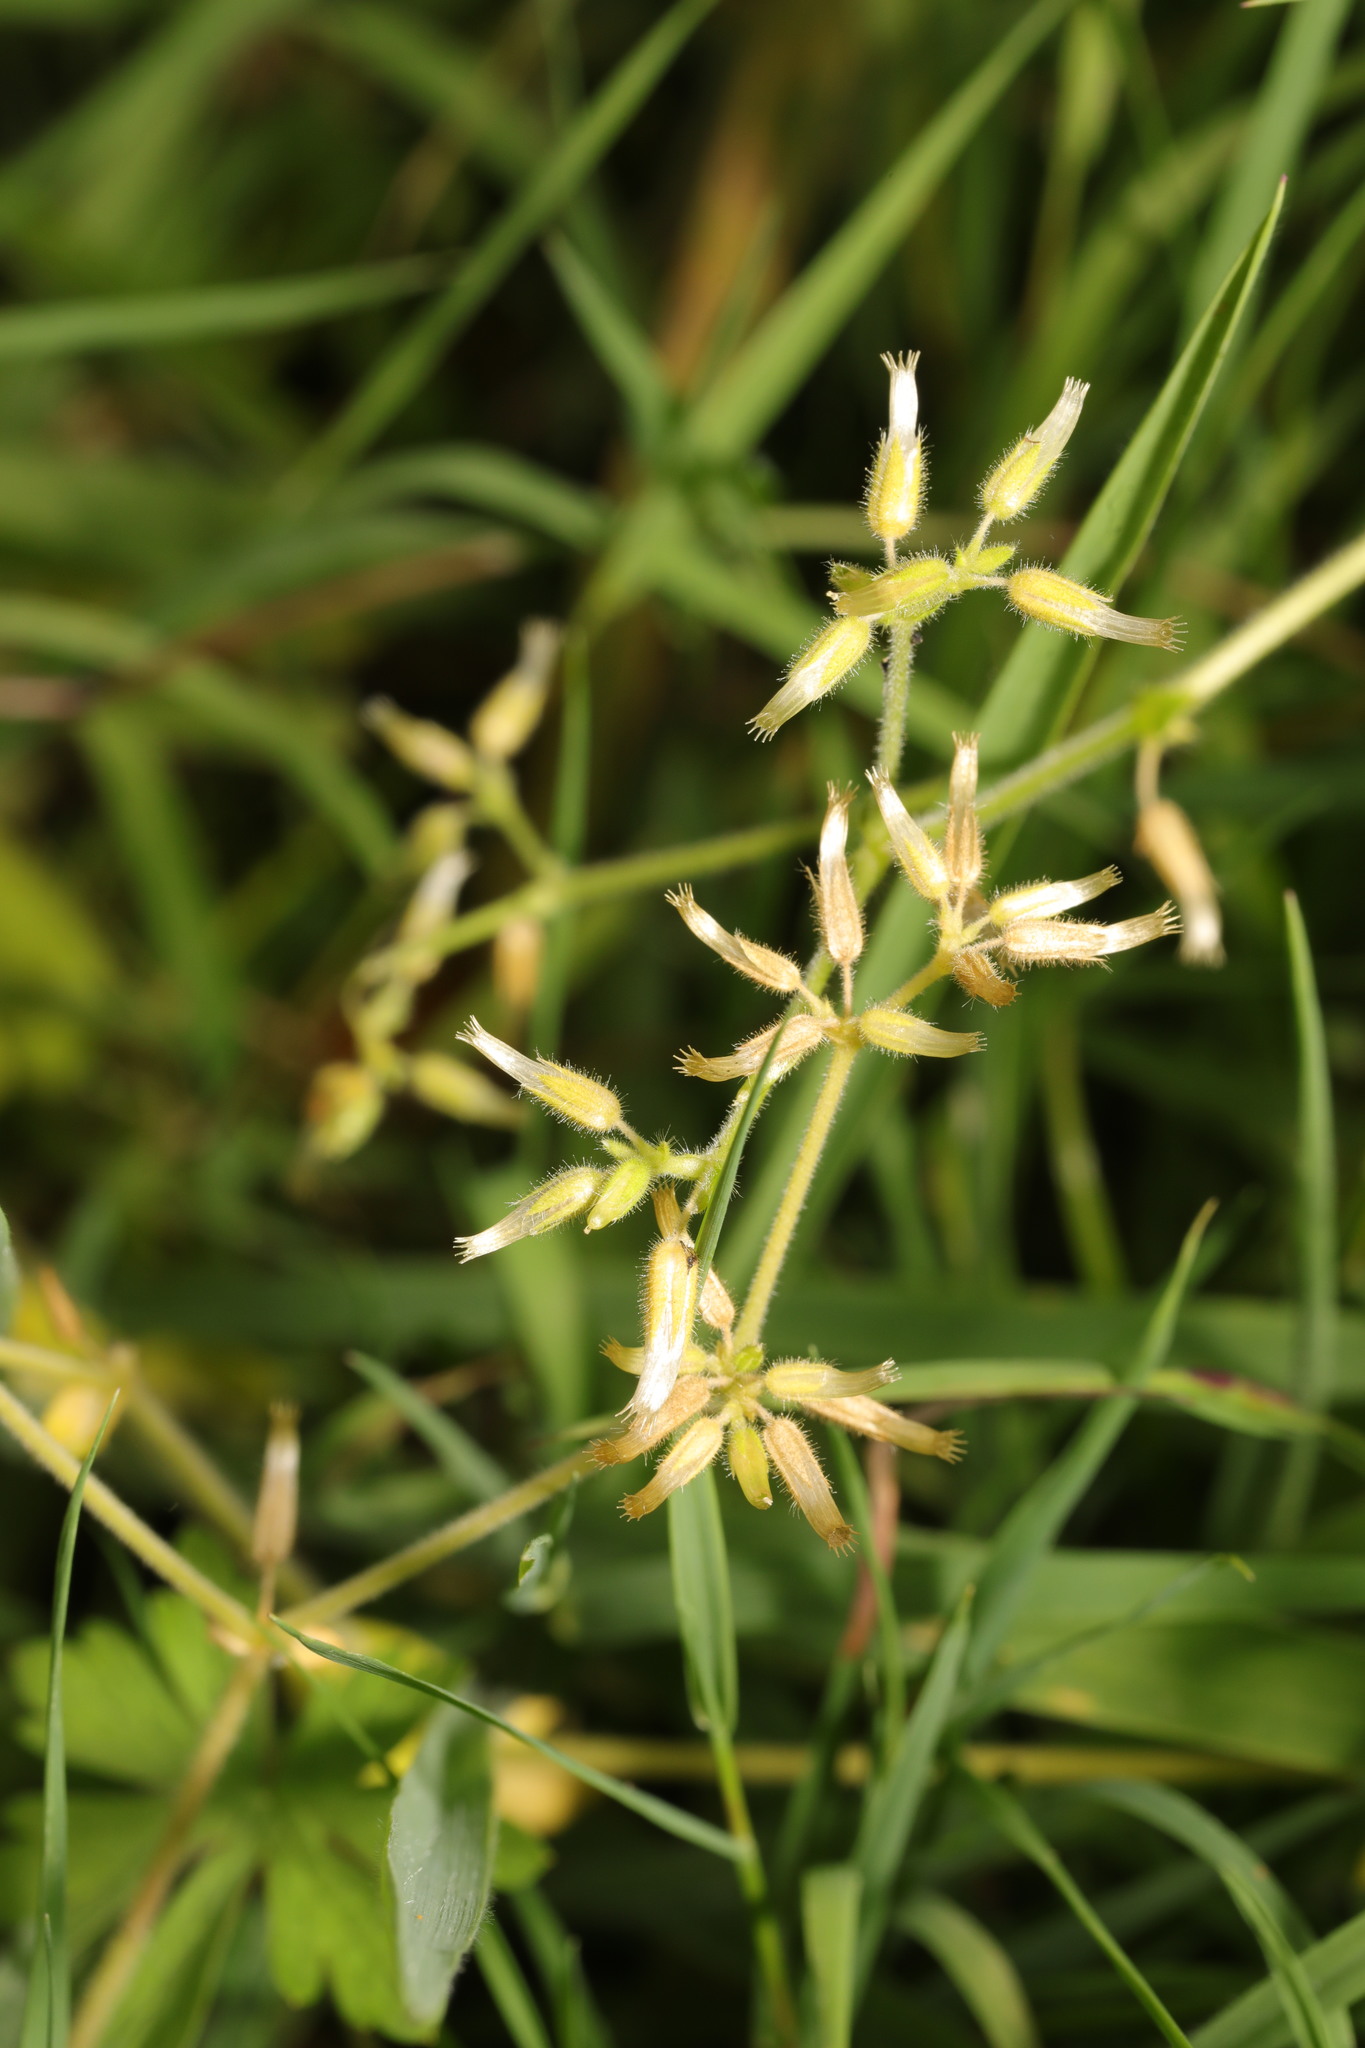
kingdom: Plantae
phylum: Tracheophyta
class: Magnoliopsida
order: Caryophyllales
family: Caryophyllaceae
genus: Cerastium
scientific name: Cerastium glomeratum
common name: Sticky chickweed
